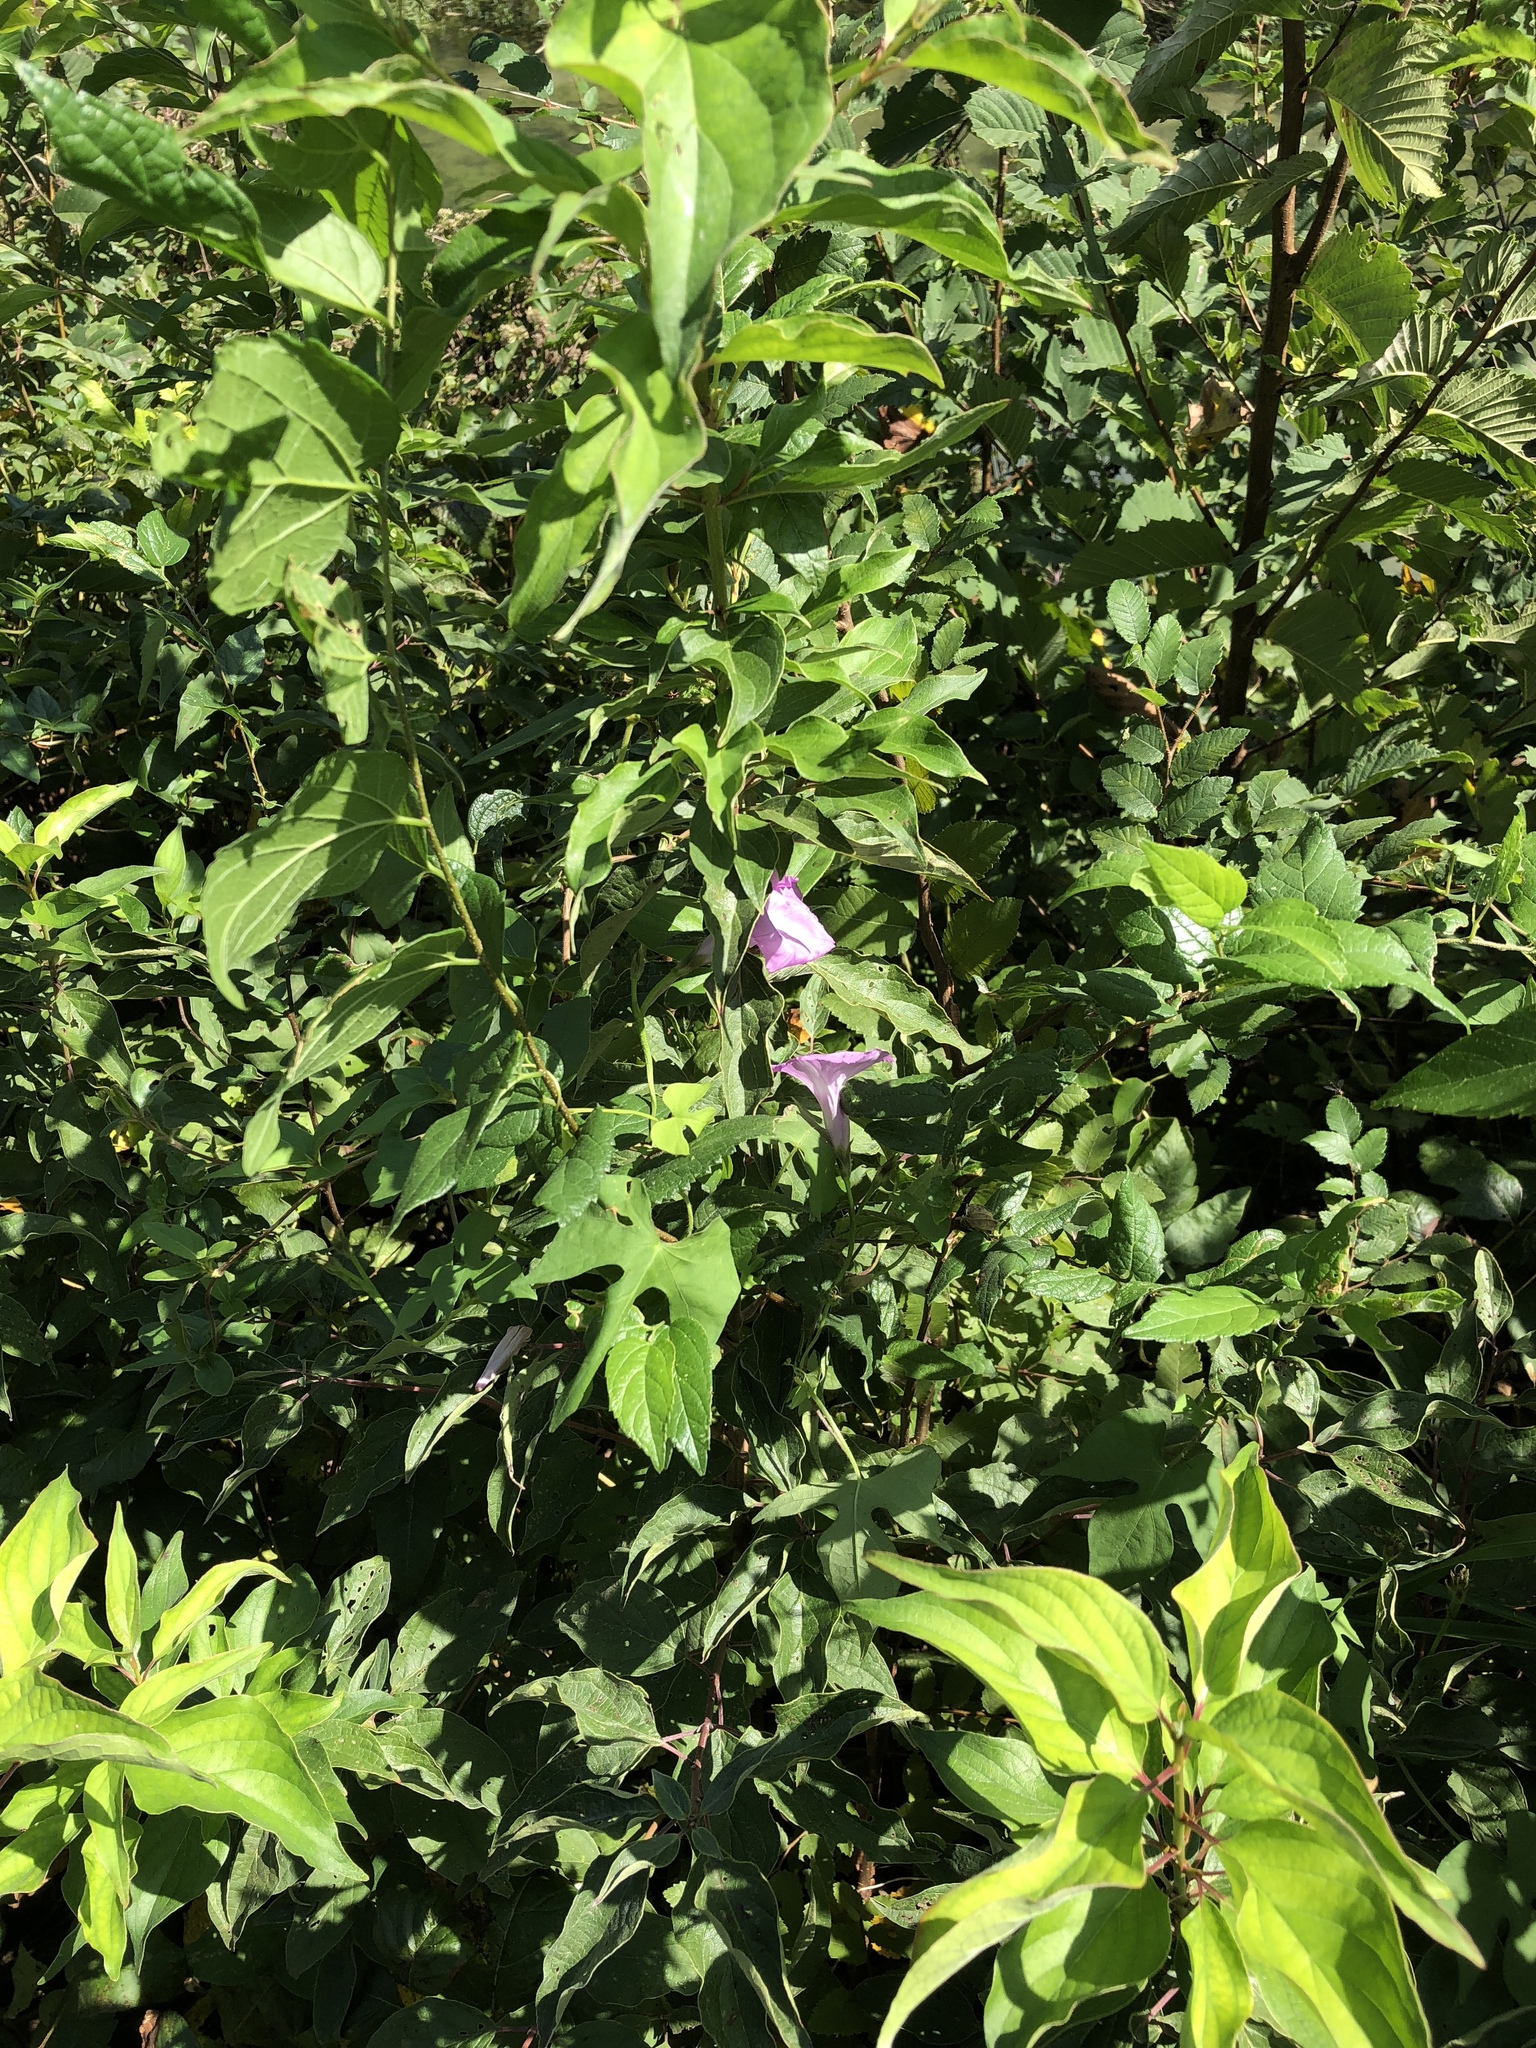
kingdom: Plantae
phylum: Tracheophyta
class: Magnoliopsida
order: Solanales
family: Convolvulaceae
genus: Ipomoea
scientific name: Ipomoea cordatotriloba
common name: Cotton morning glory
